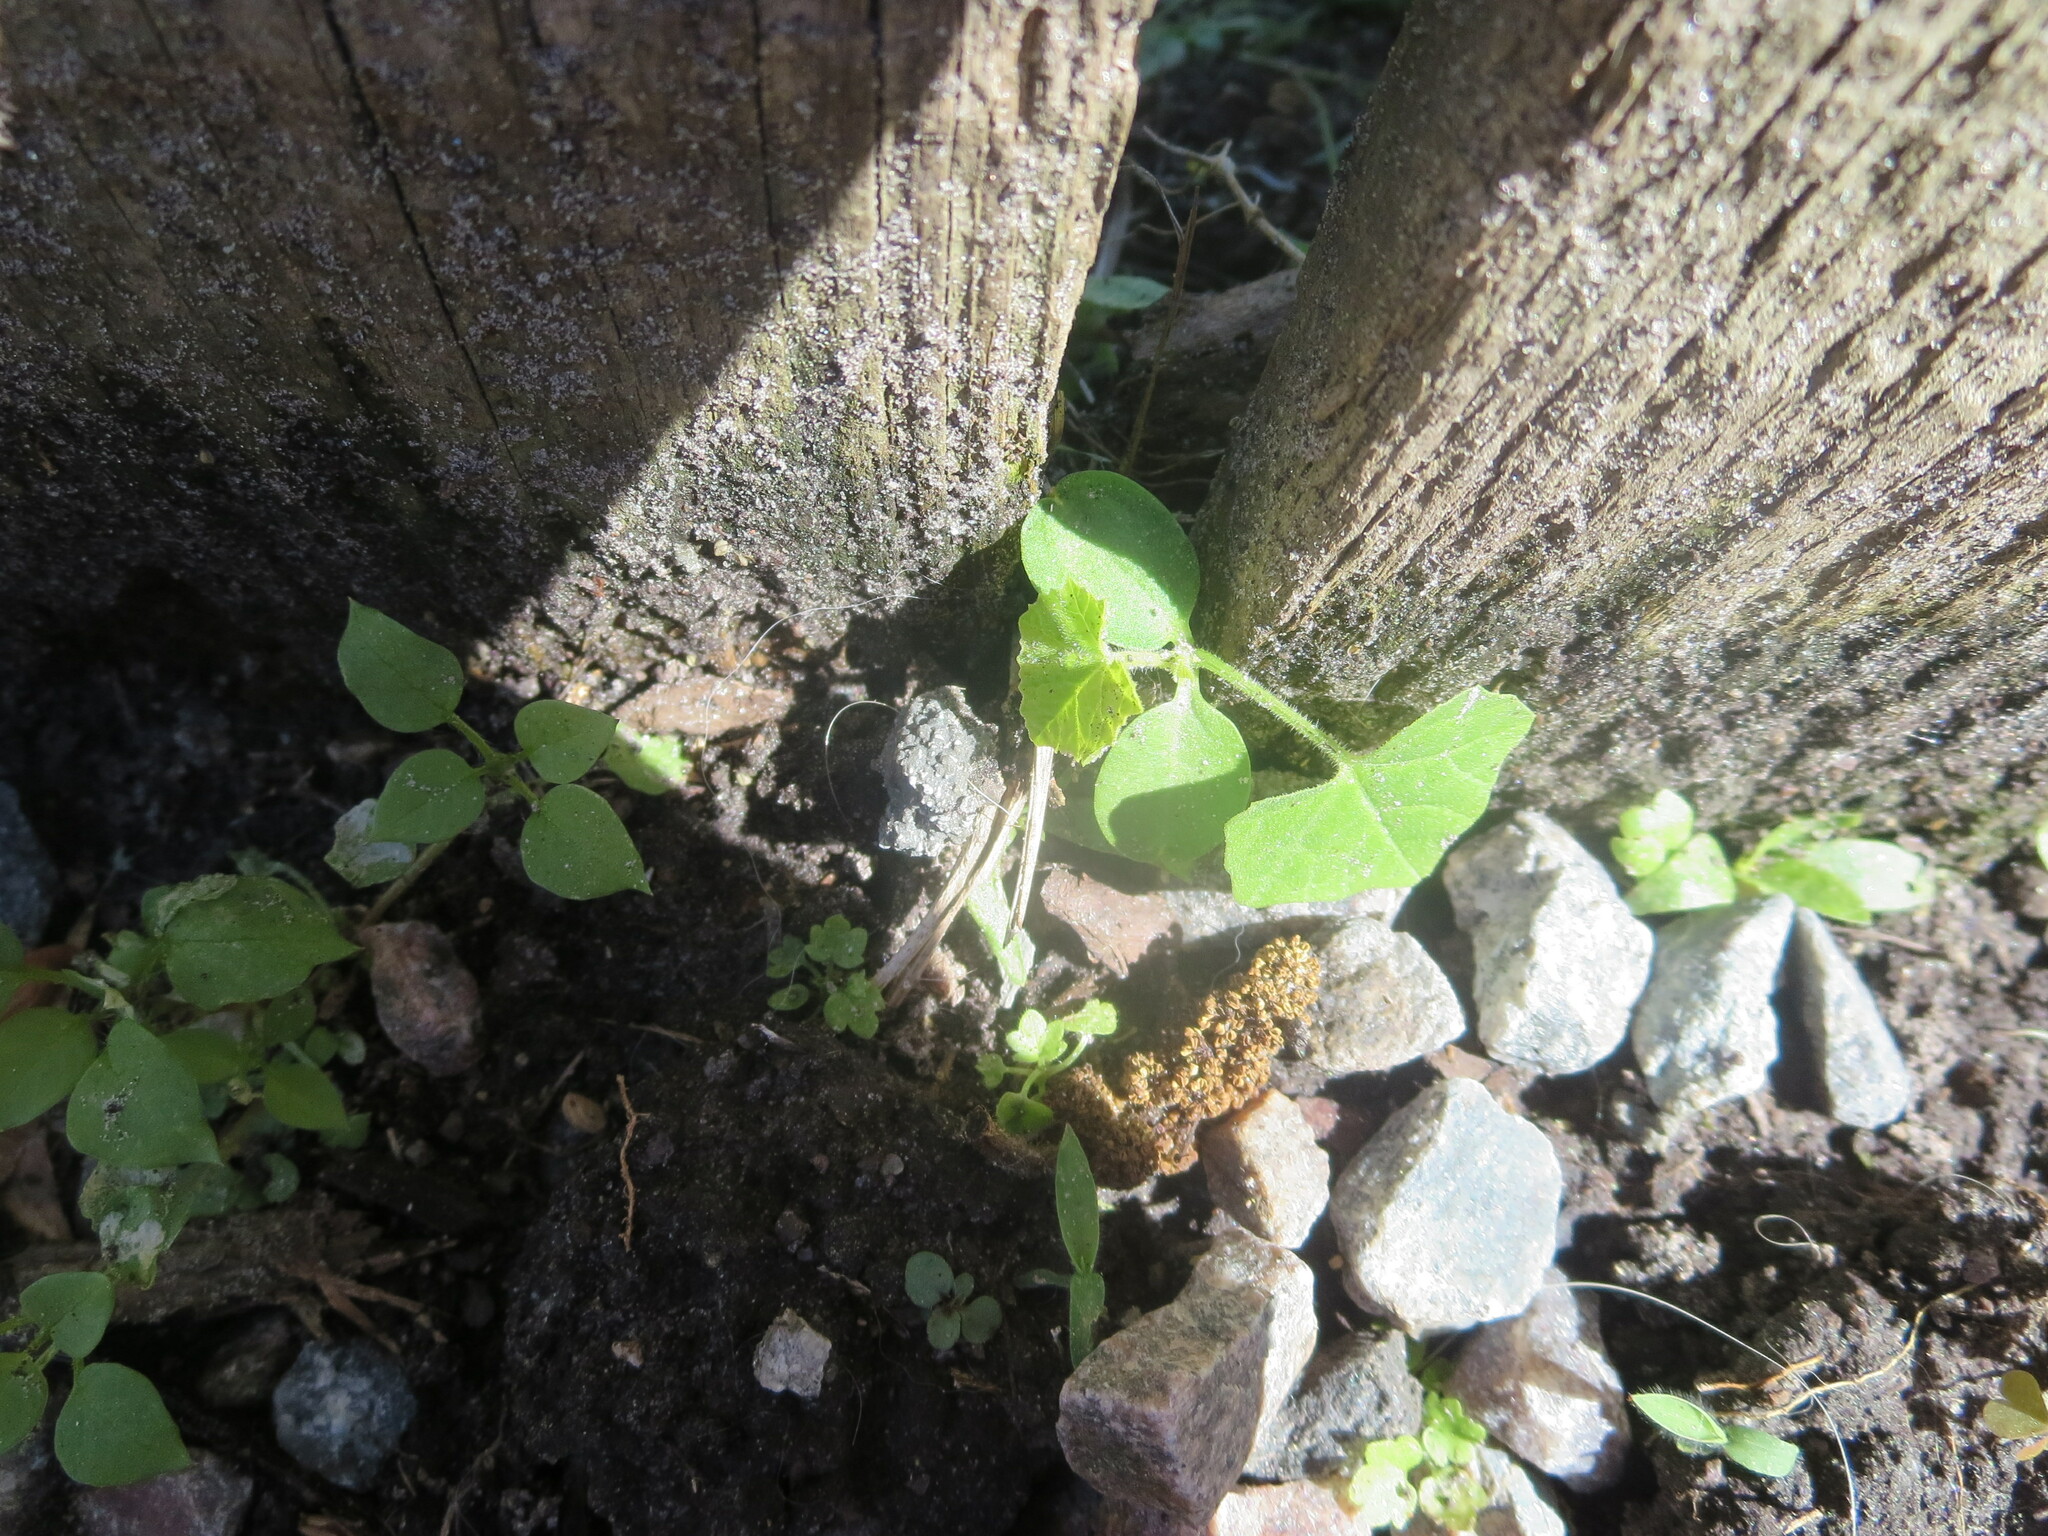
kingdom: Plantae
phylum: Tracheophyta
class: Magnoliopsida
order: Cucurbitales
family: Cucurbitaceae
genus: Melothria
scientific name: Melothria pendula
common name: Creeping-cucumber
